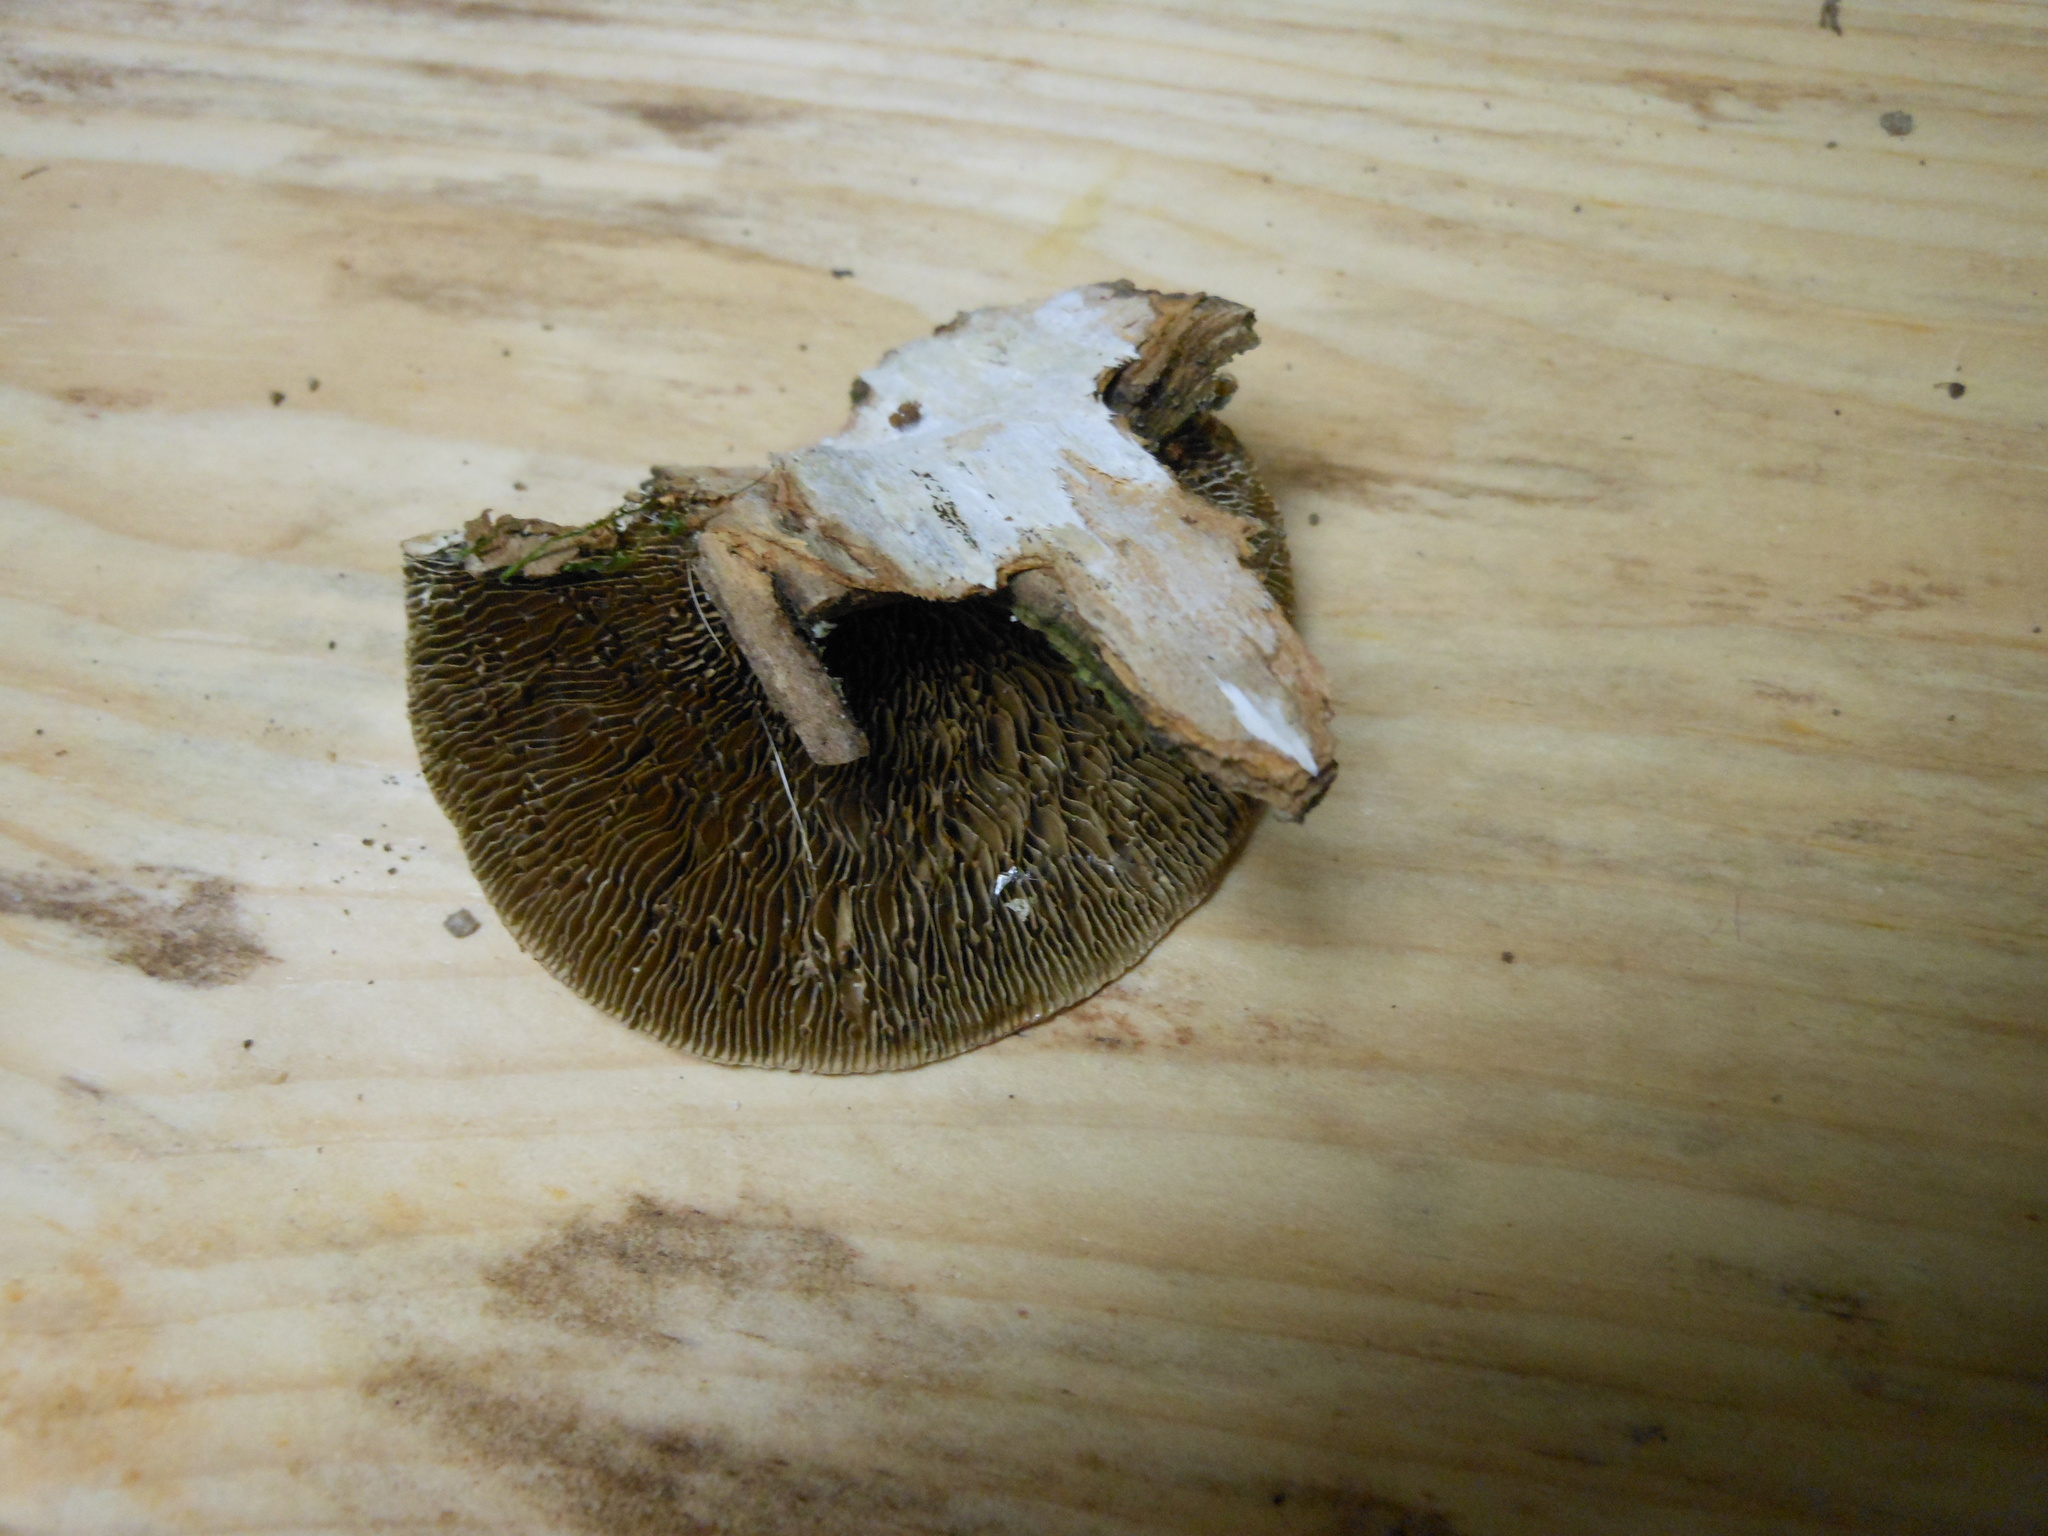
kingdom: Fungi
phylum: Basidiomycota
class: Agaricomycetes
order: Polyporales
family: Polyporaceae
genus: Daedaleopsis
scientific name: Daedaleopsis confragosa
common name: Blushing bracket
